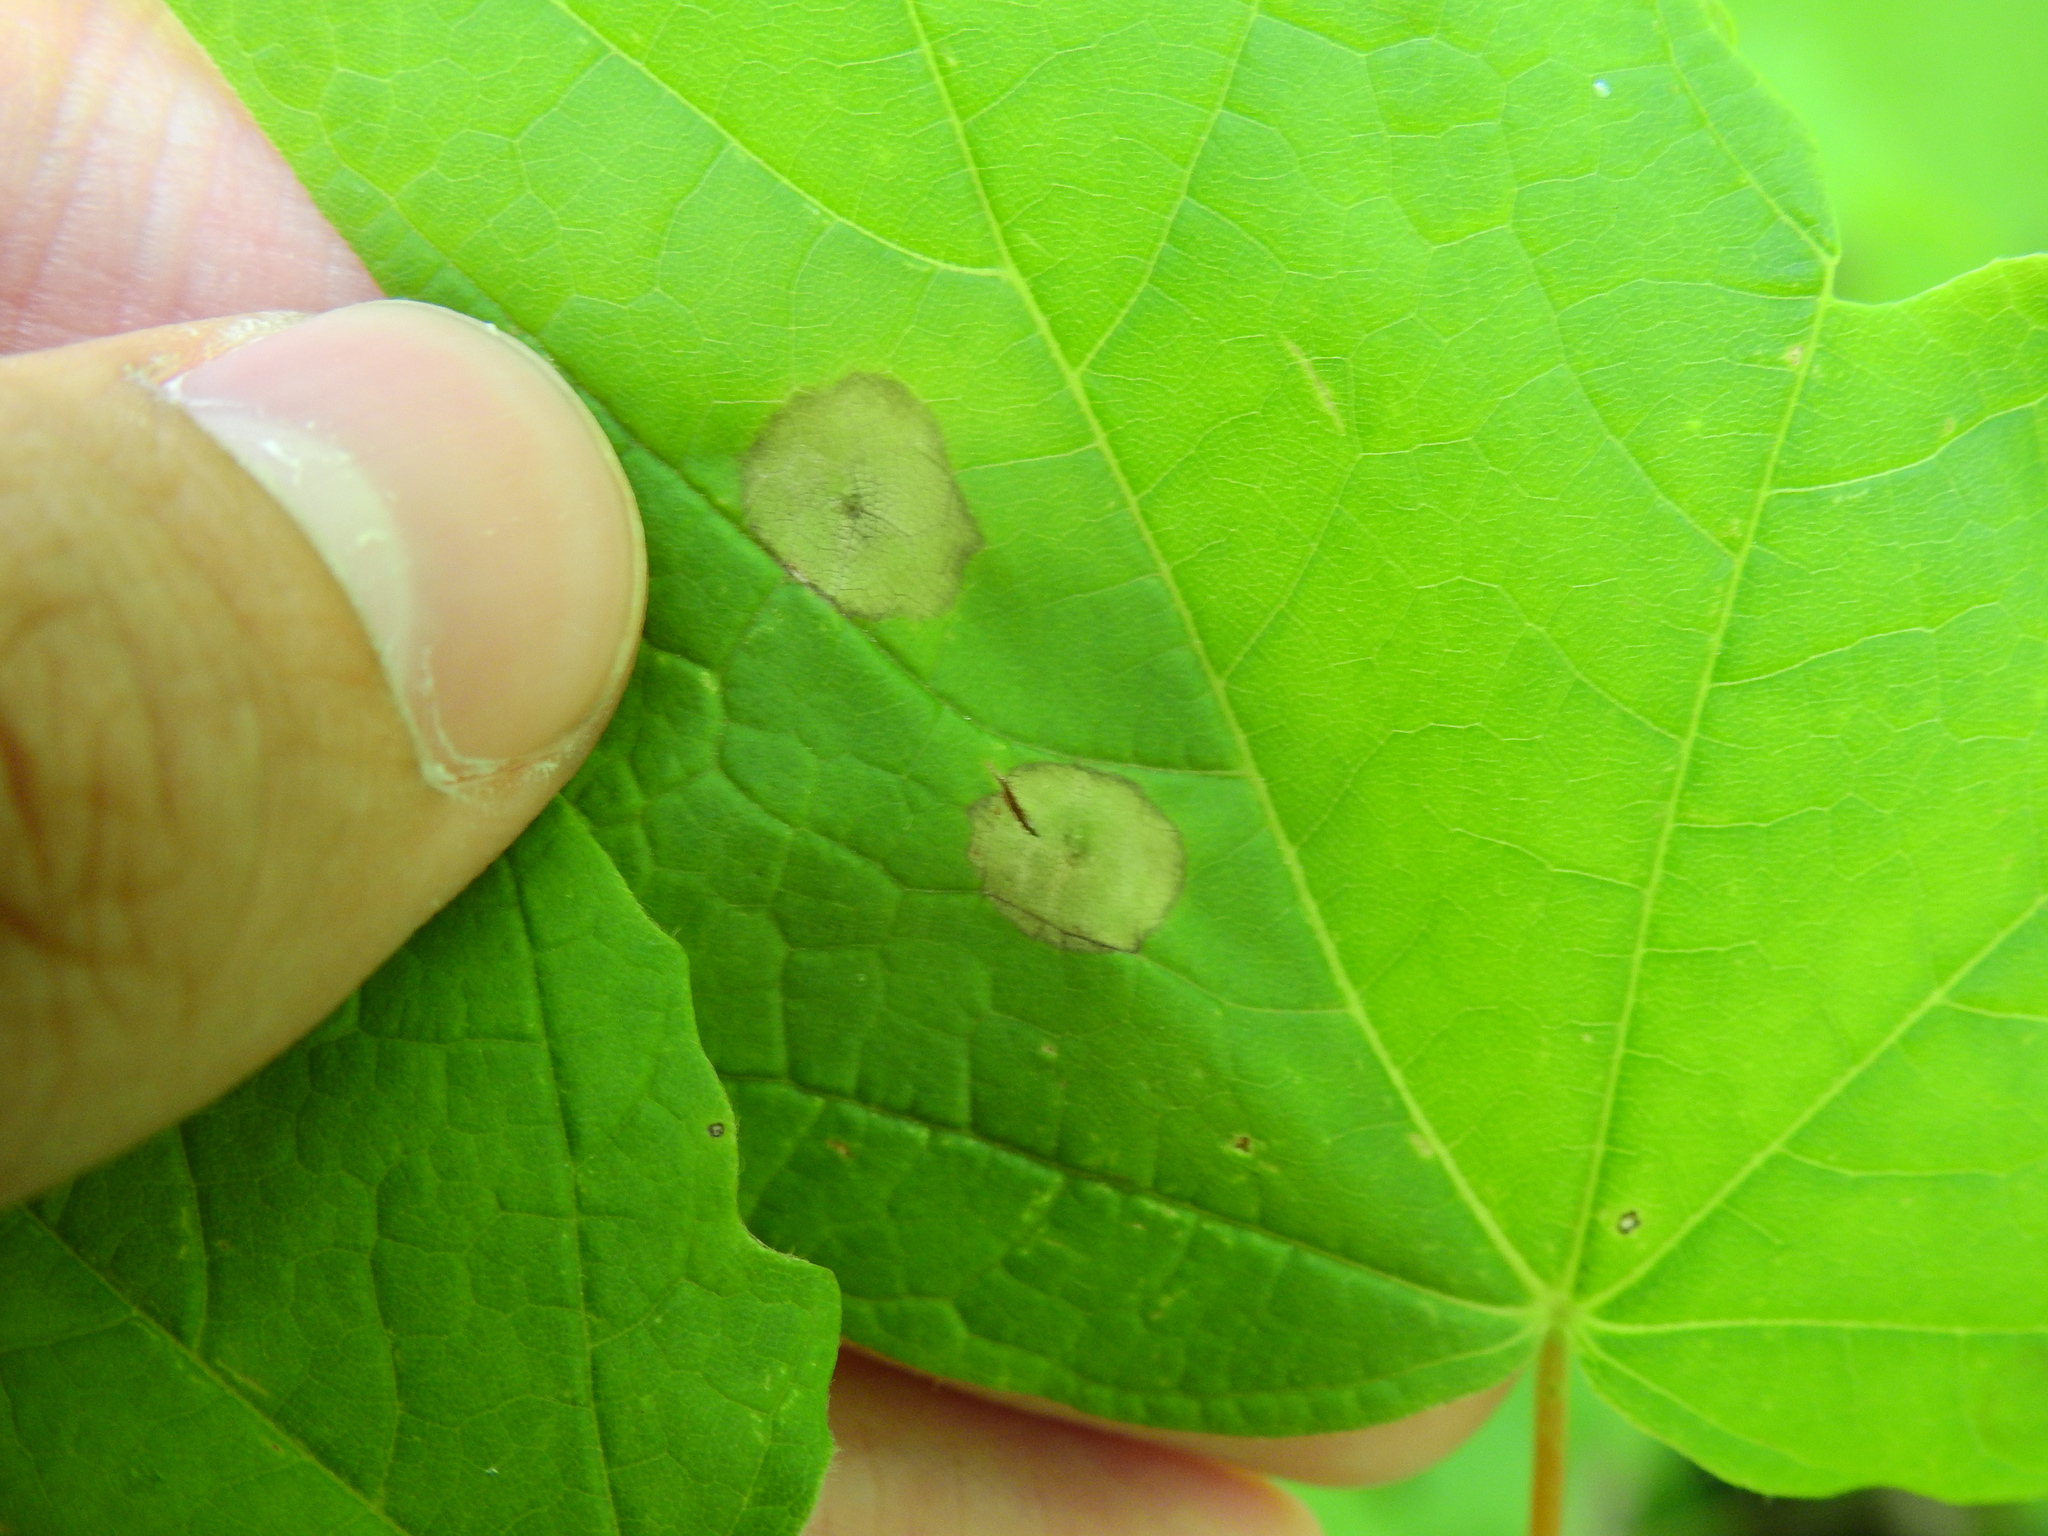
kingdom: Animalia
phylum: Arthropoda
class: Insecta
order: Diptera
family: Cecidomyiidae
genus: Acericecis
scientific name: Acericecis ocellaris
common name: Ocellate gall midge
